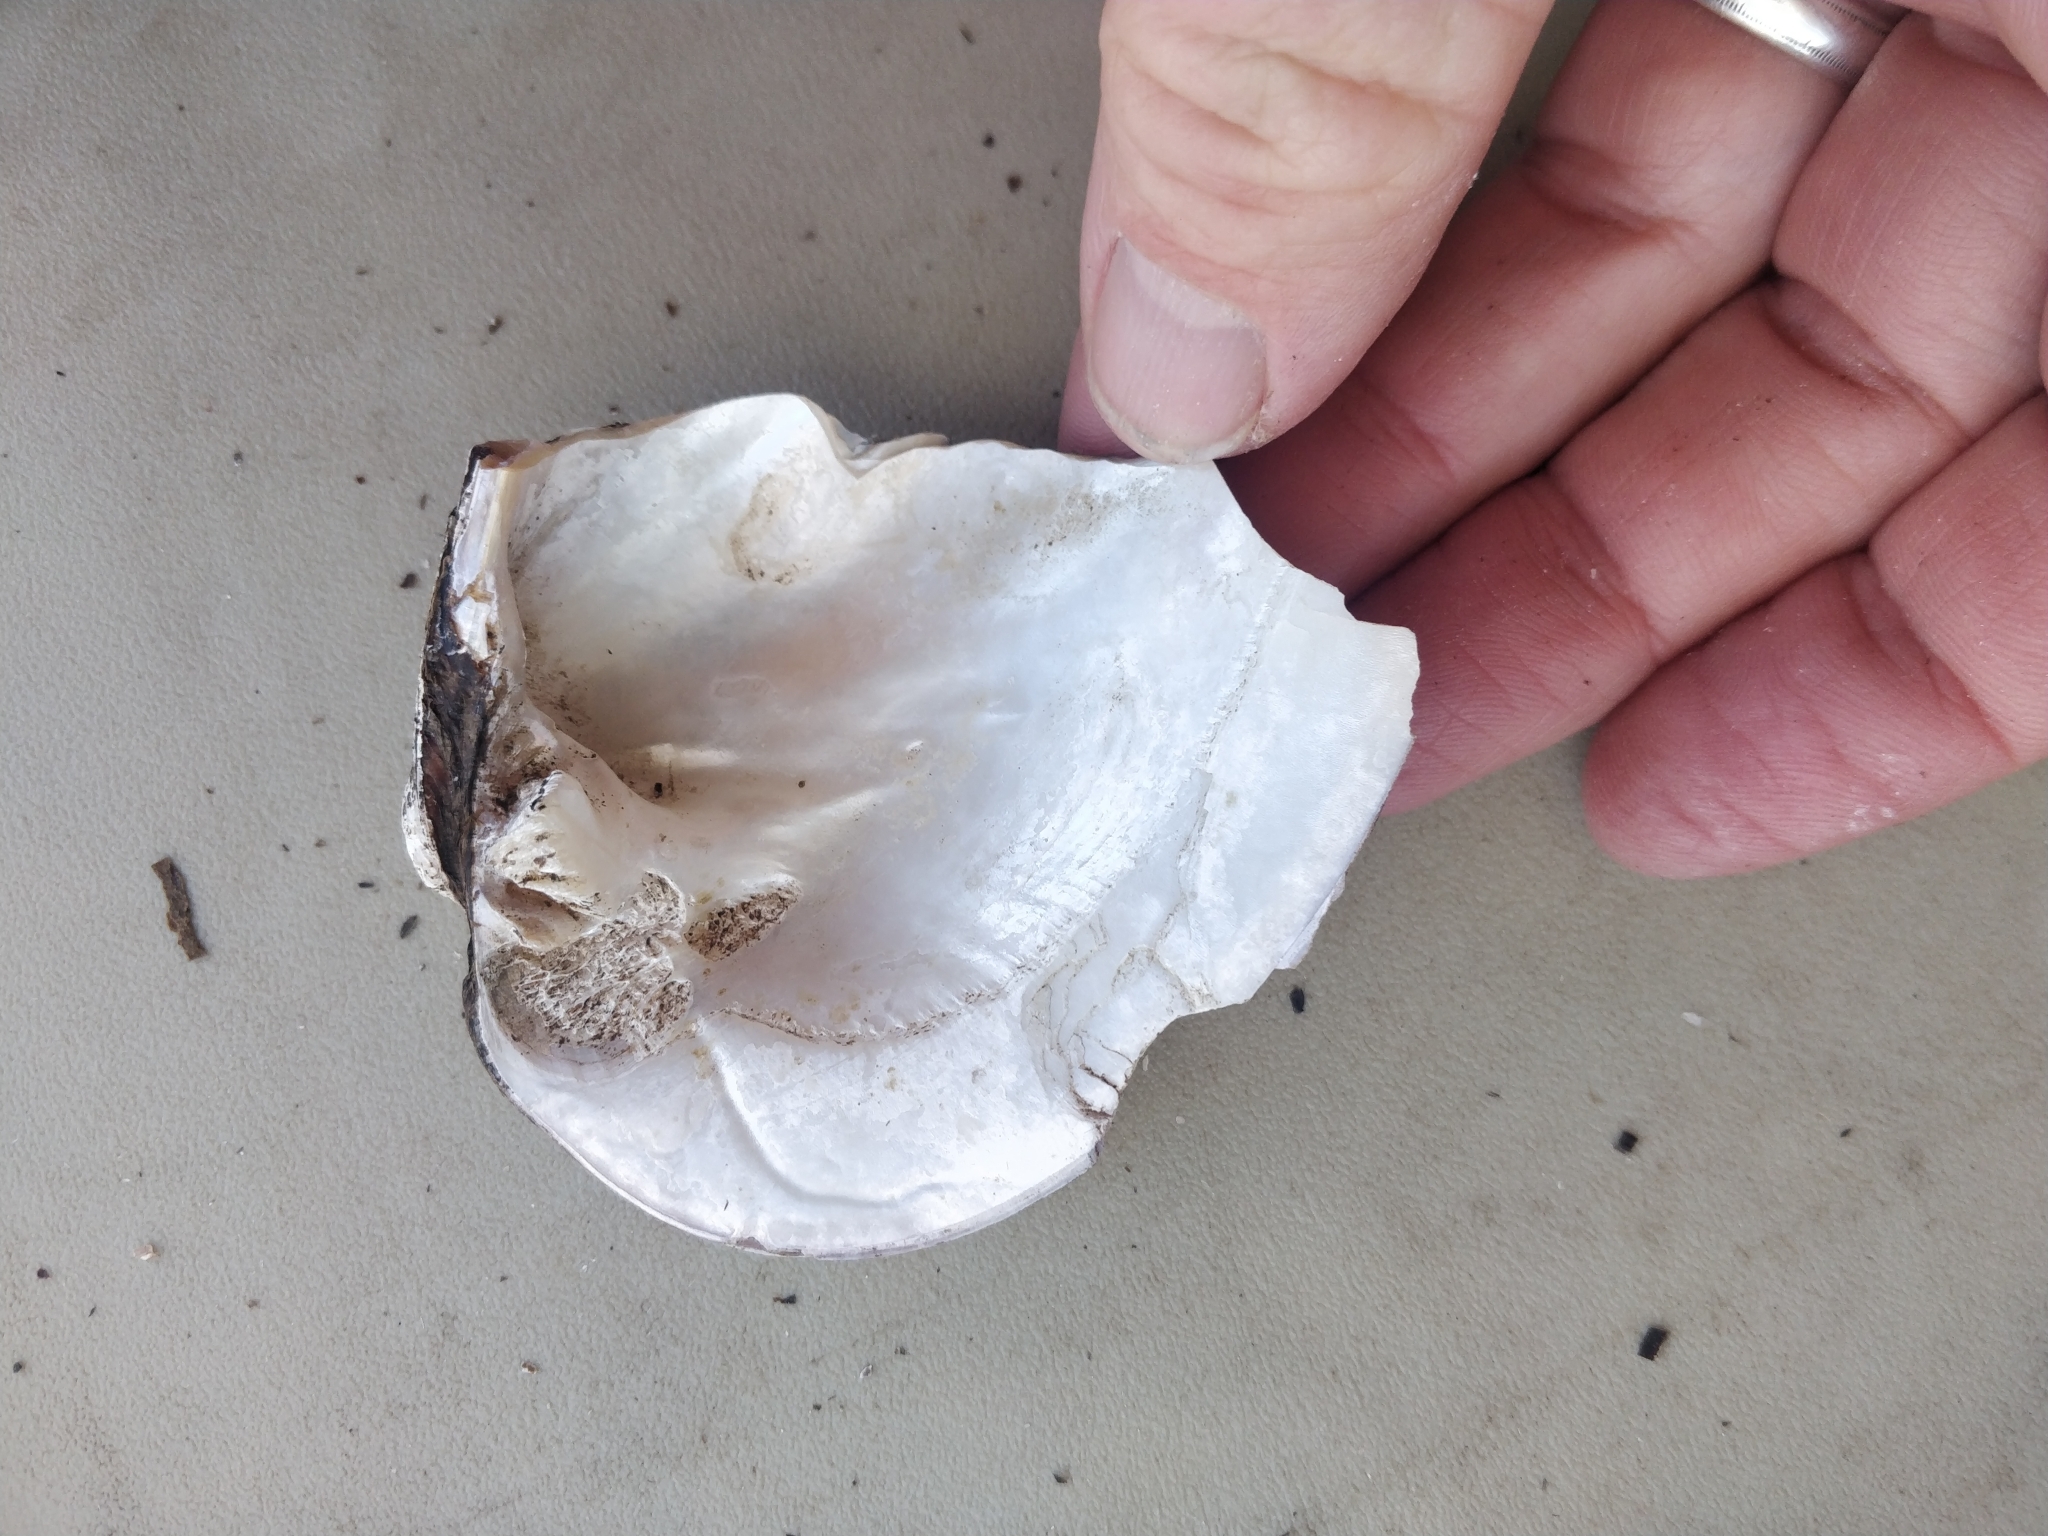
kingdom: Animalia
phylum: Mollusca
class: Bivalvia
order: Unionida
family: Unionidae
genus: Amblema
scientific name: Amblema plicata
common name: Threeridge
